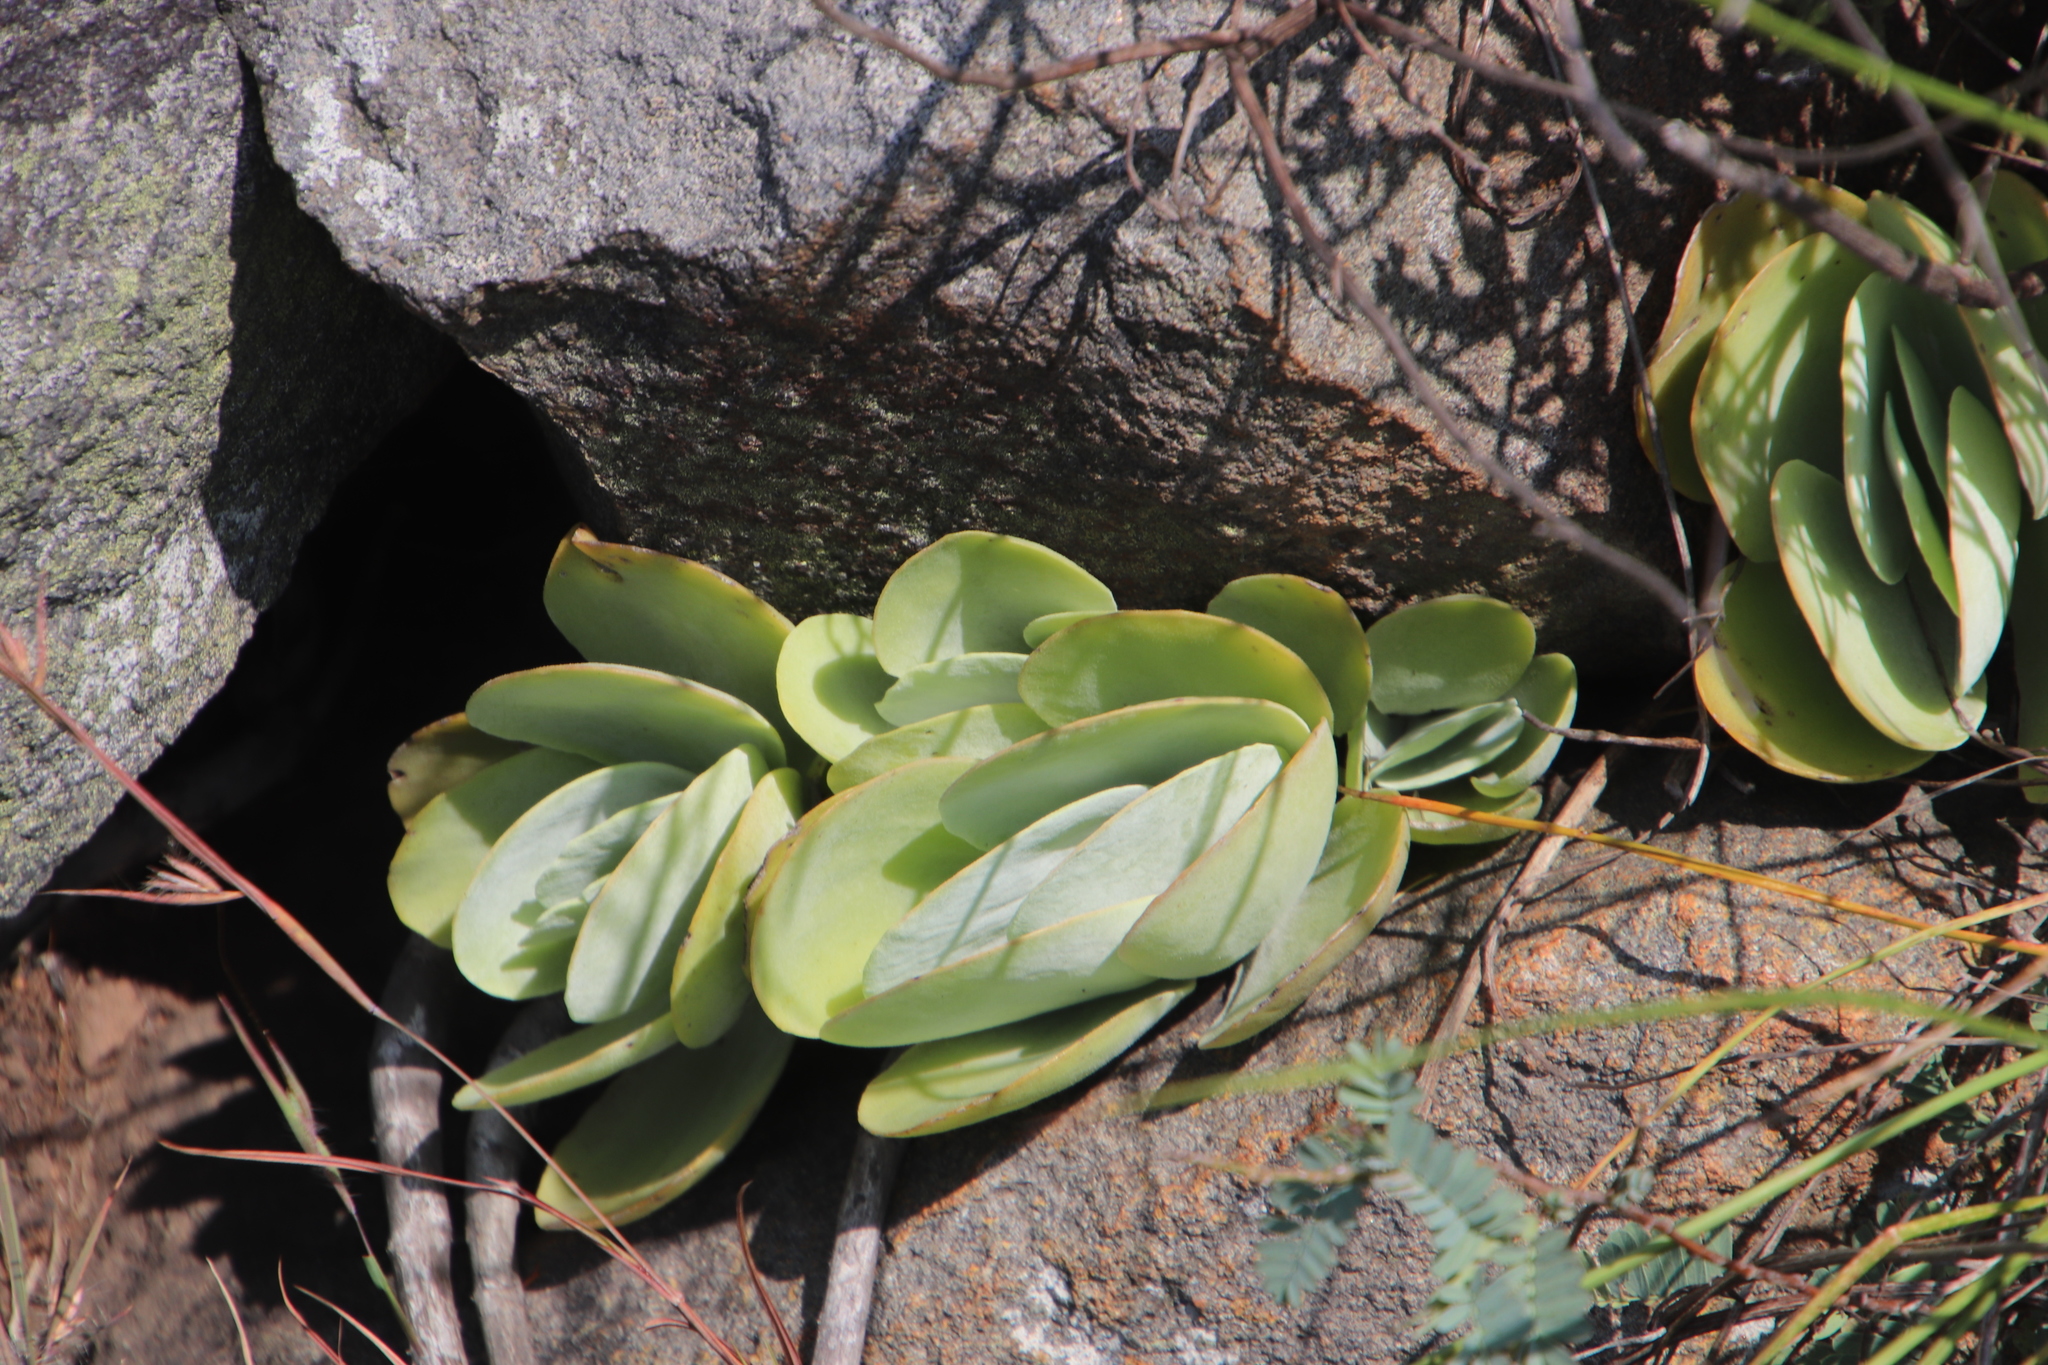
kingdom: Plantae
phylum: Tracheophyta
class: Magnoliopsida
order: Saxifragales
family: Crassulaceae
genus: Kalanchoe
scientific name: Kalanchoe thyrsiflora
